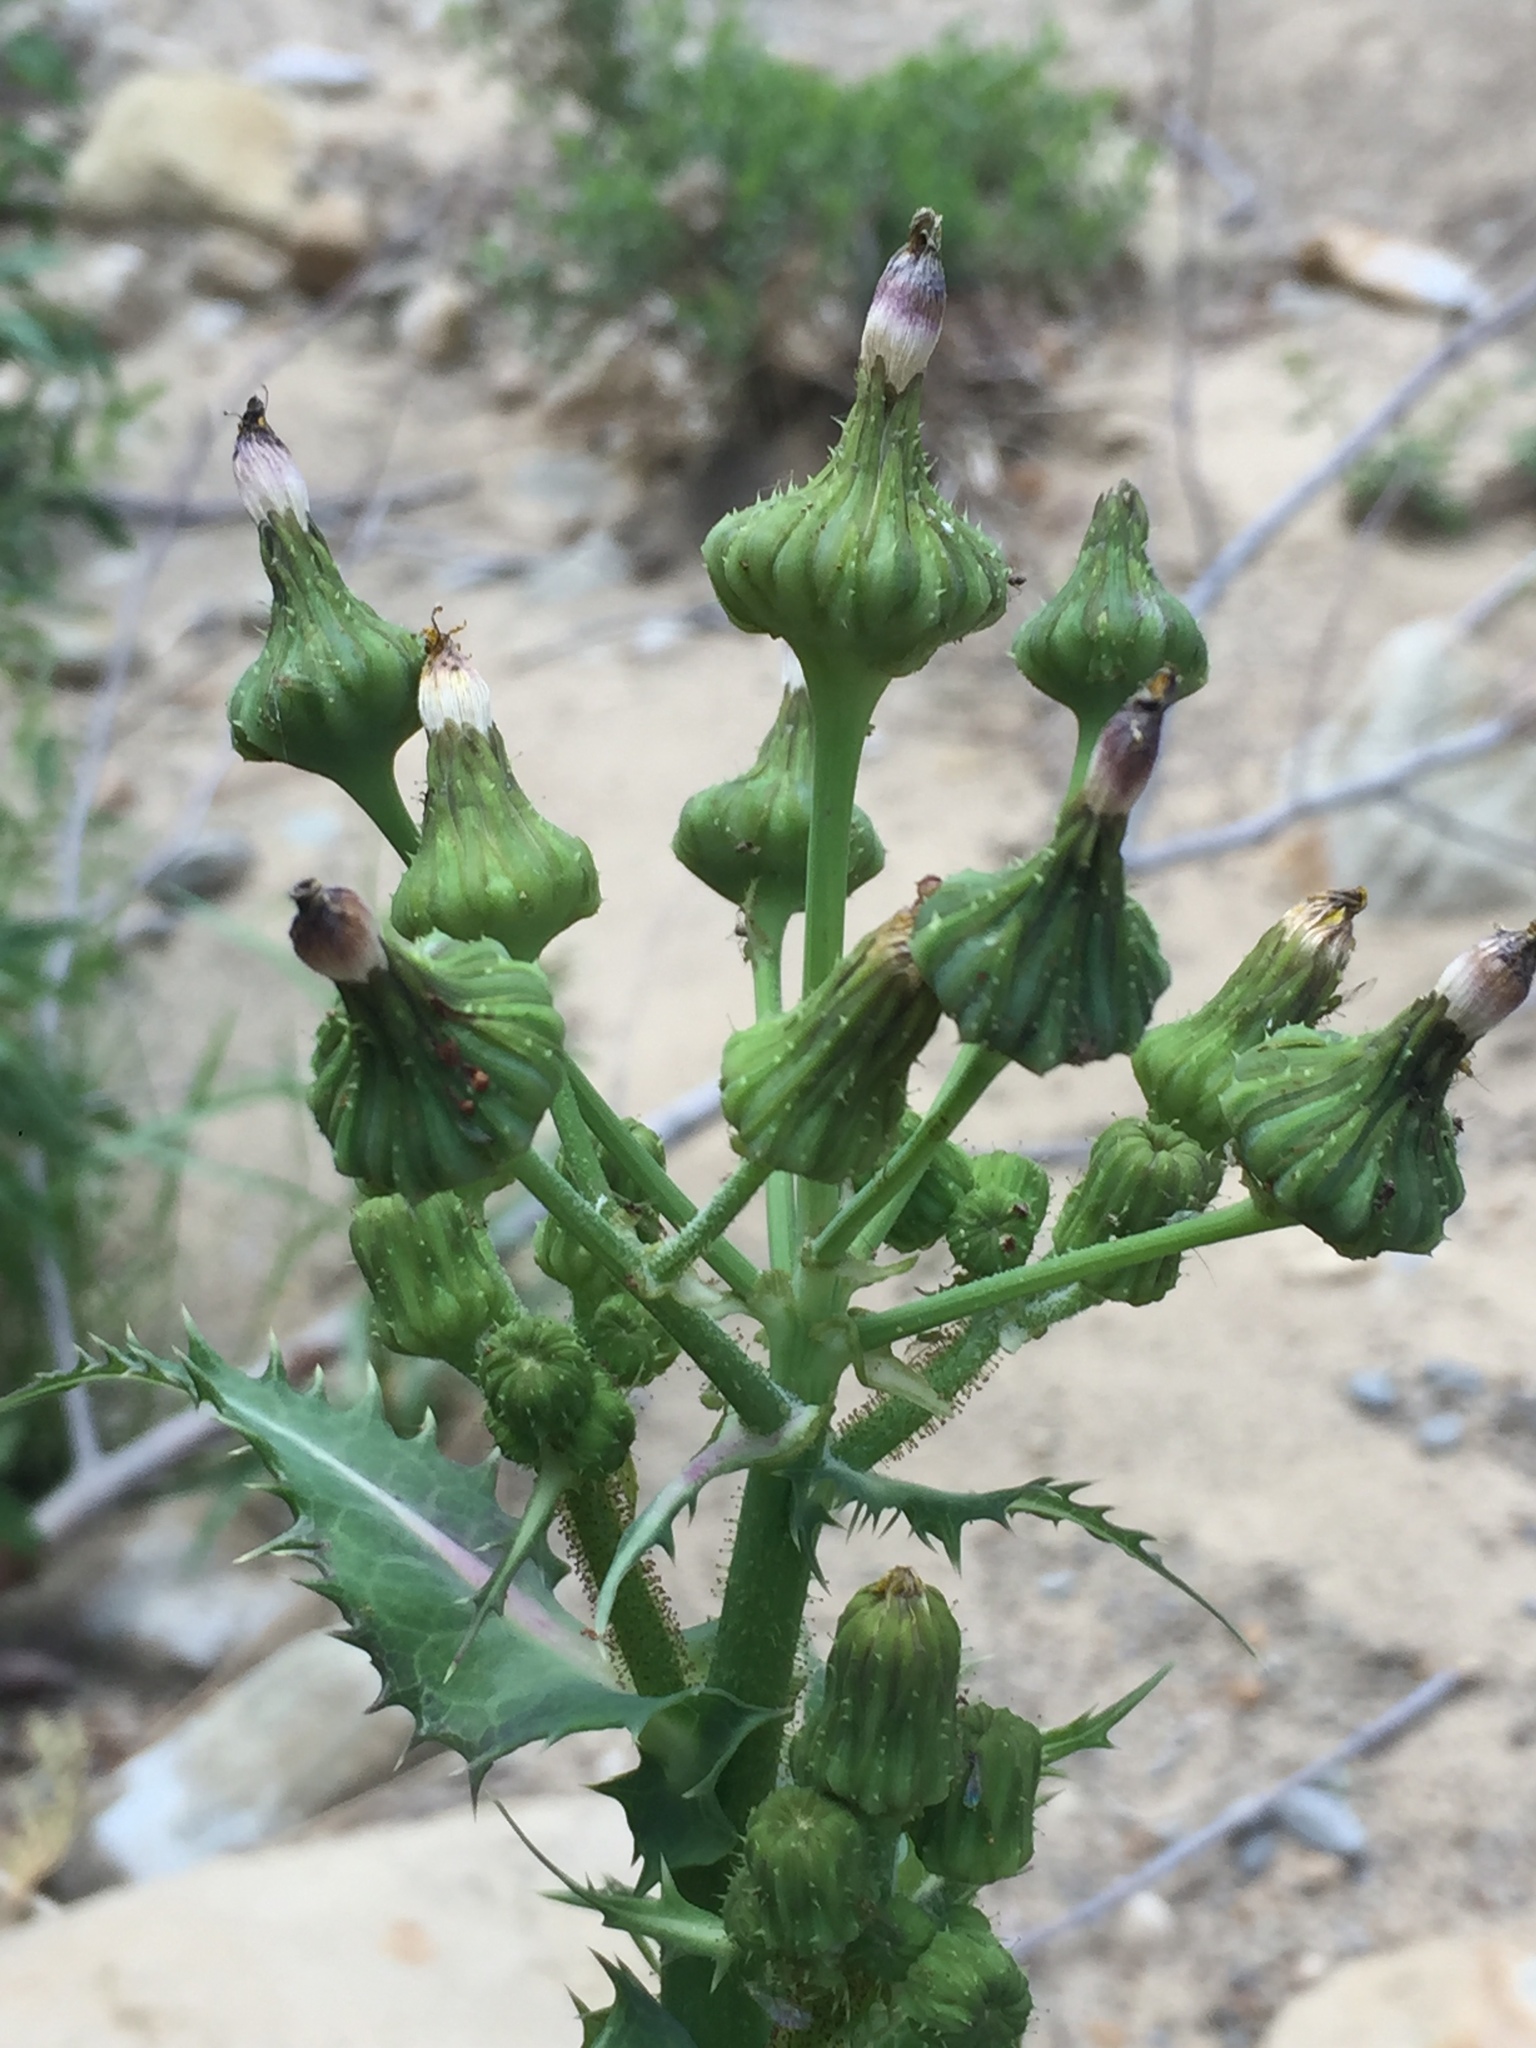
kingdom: Plantae
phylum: Tracheophyta
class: Magnoliopsida
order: Asterales
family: Asteraceae
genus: Sonchus
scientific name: Sonchus asper
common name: Prickly sow-thistle
